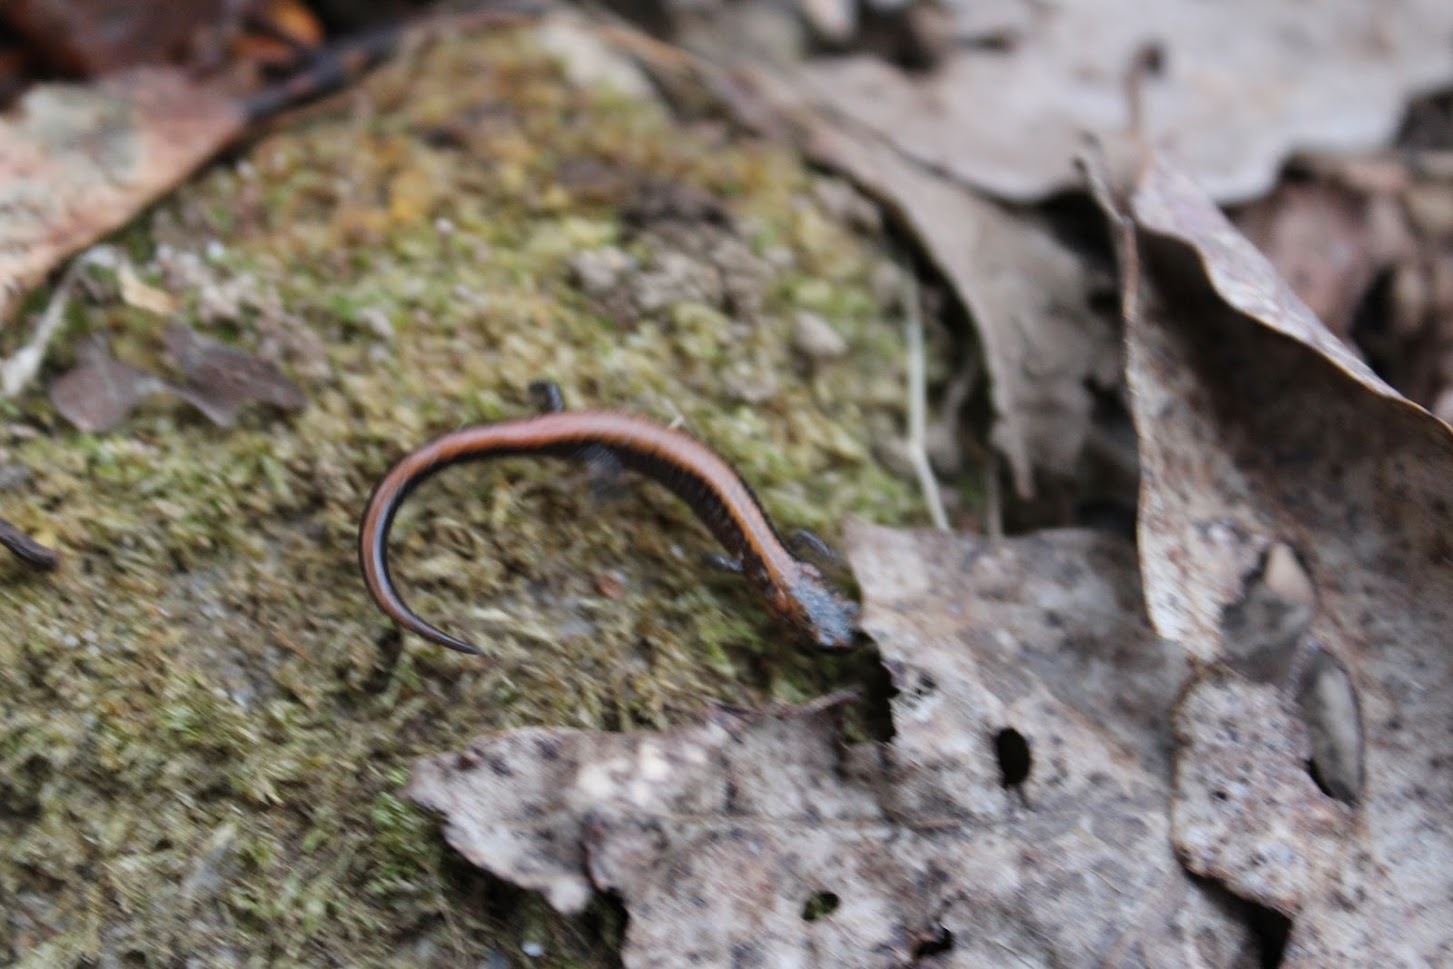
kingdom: Animalia
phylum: Chordata
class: Amphibia
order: Caudata
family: Plethodontidae
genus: Plethodon
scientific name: Plethodon cinereus
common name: Redback salamander
